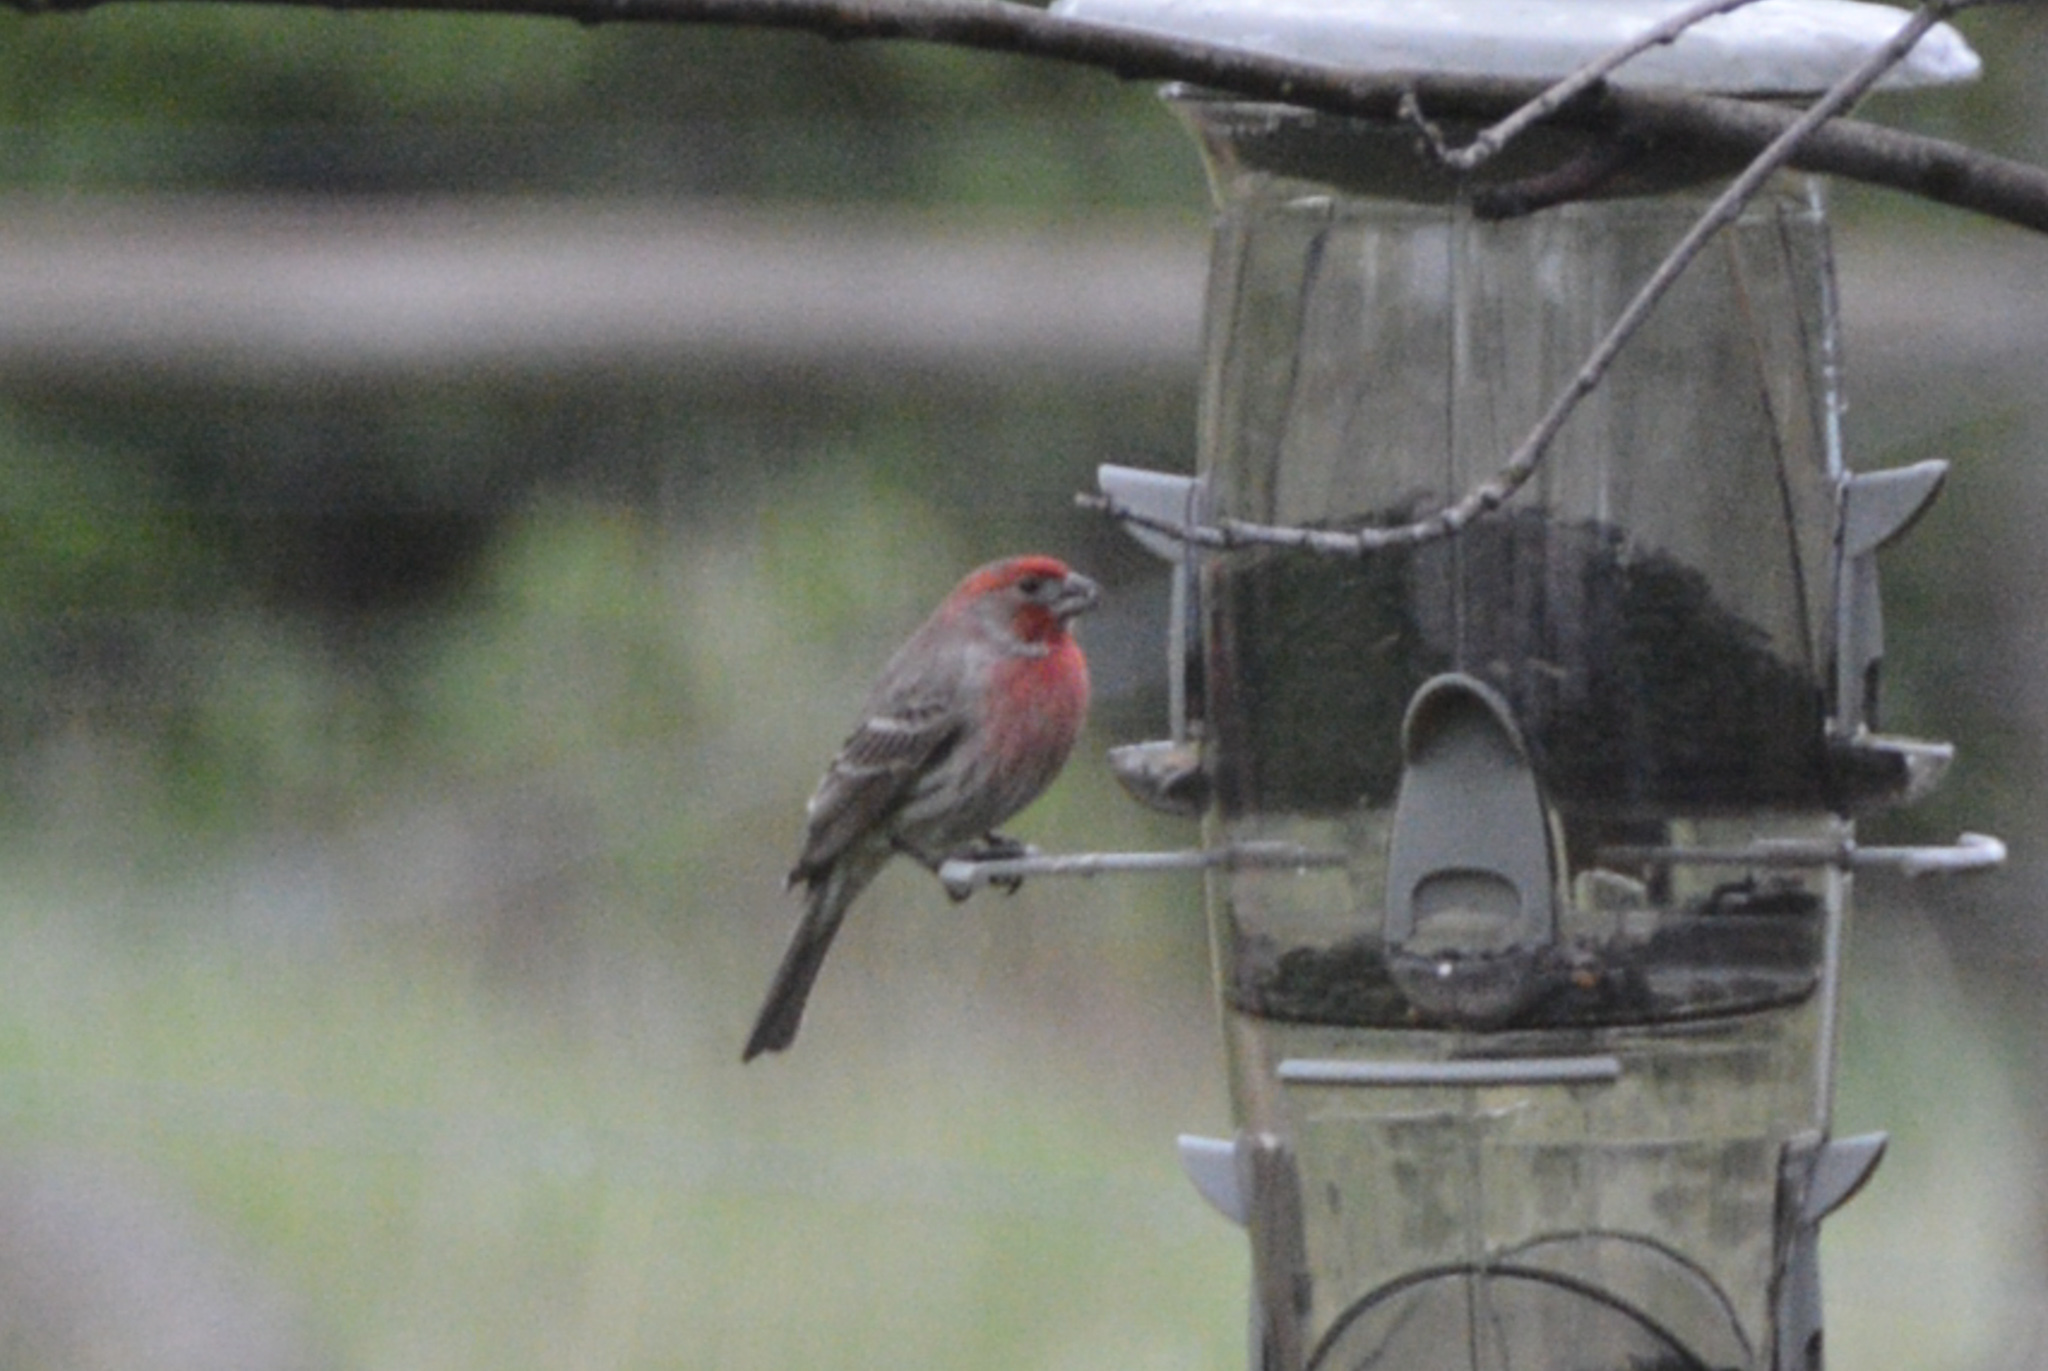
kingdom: Animalia
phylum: Chordata
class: Aves
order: Passeriformes
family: Fringillidae
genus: Haemorhous
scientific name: Haemorhous mexicanus
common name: House finch
